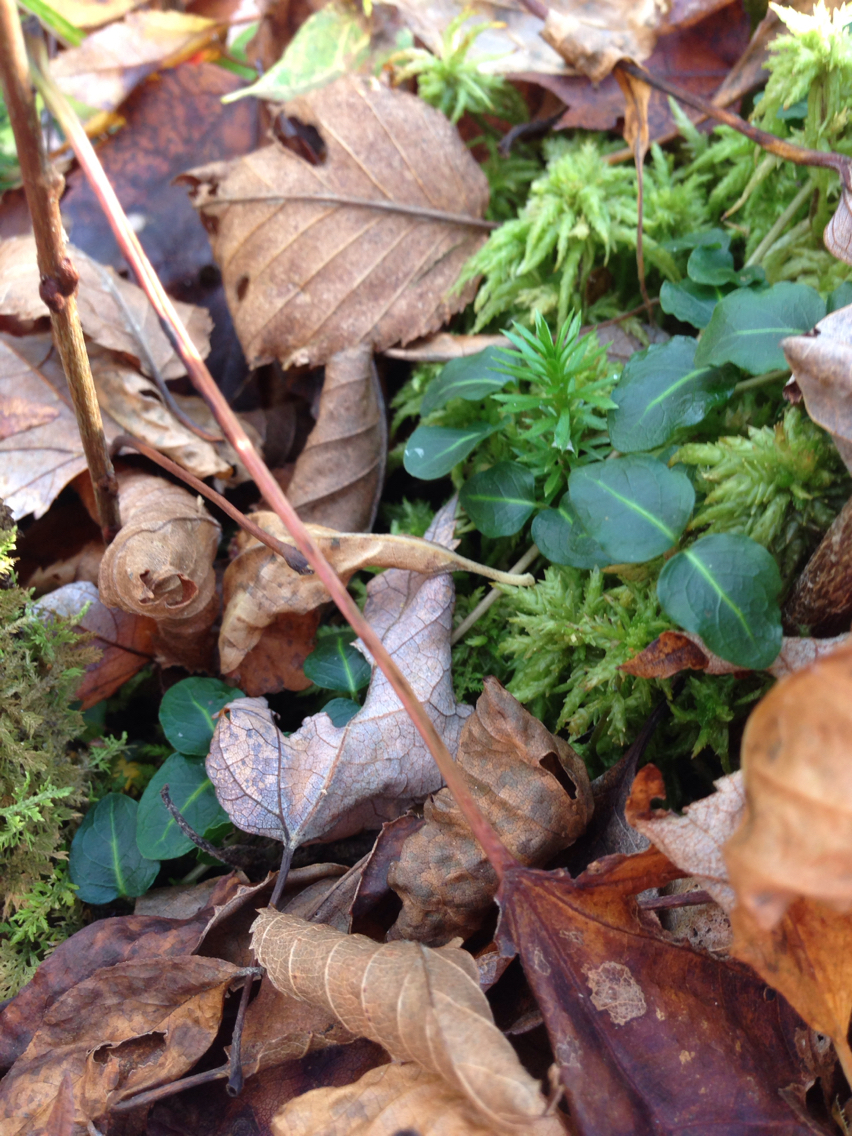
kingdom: Plantae
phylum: Tracheophyta
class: Magnoliopsida
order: Gentianales
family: Rubiaceae
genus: Mitchella
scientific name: Mitchella repens
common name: Partridge-berry
